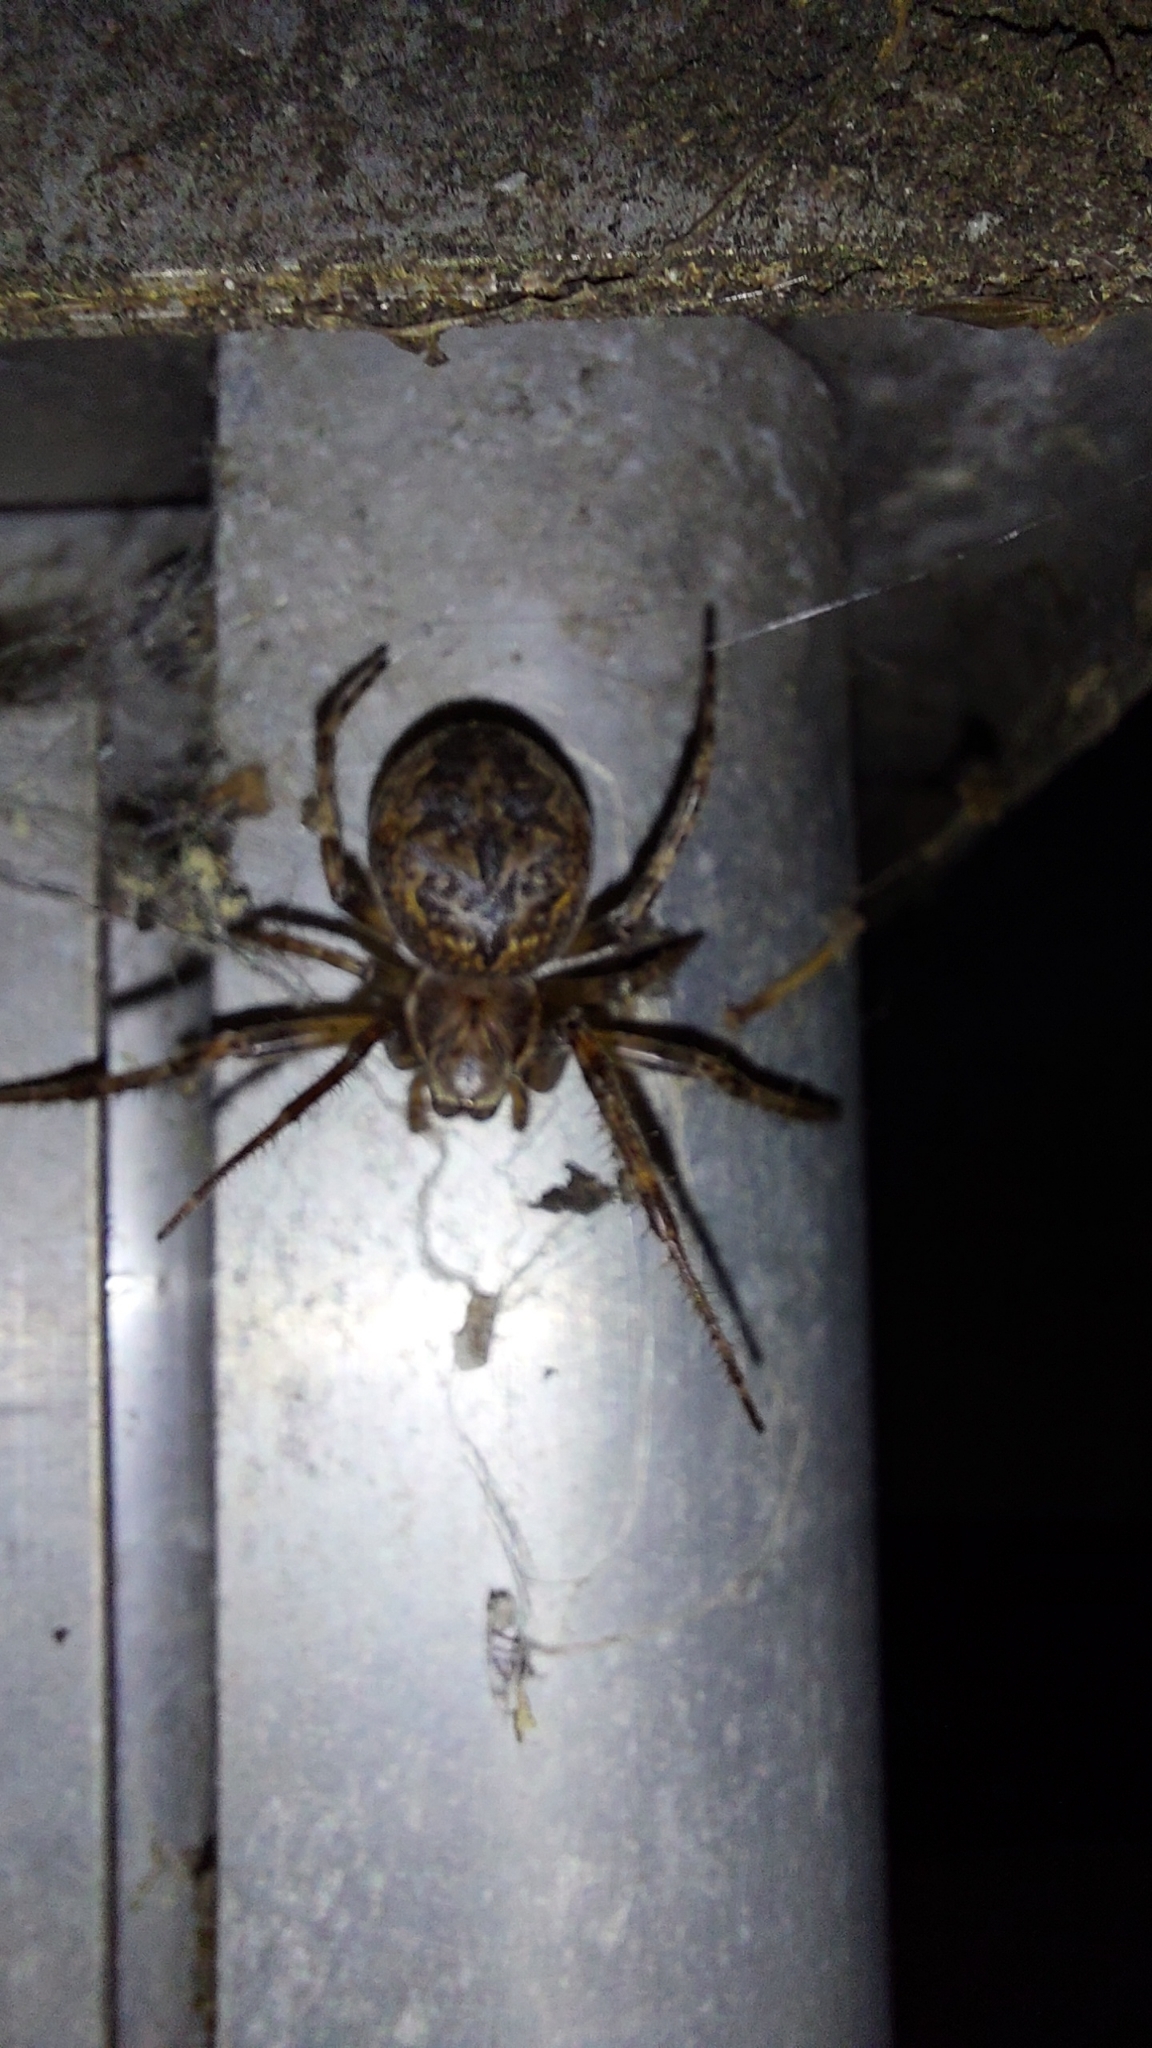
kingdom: Animalia
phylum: Arthropoda
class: Arachnida
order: Araneae
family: Araneidae
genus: Larinioides
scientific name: Larinioides ixobolus
